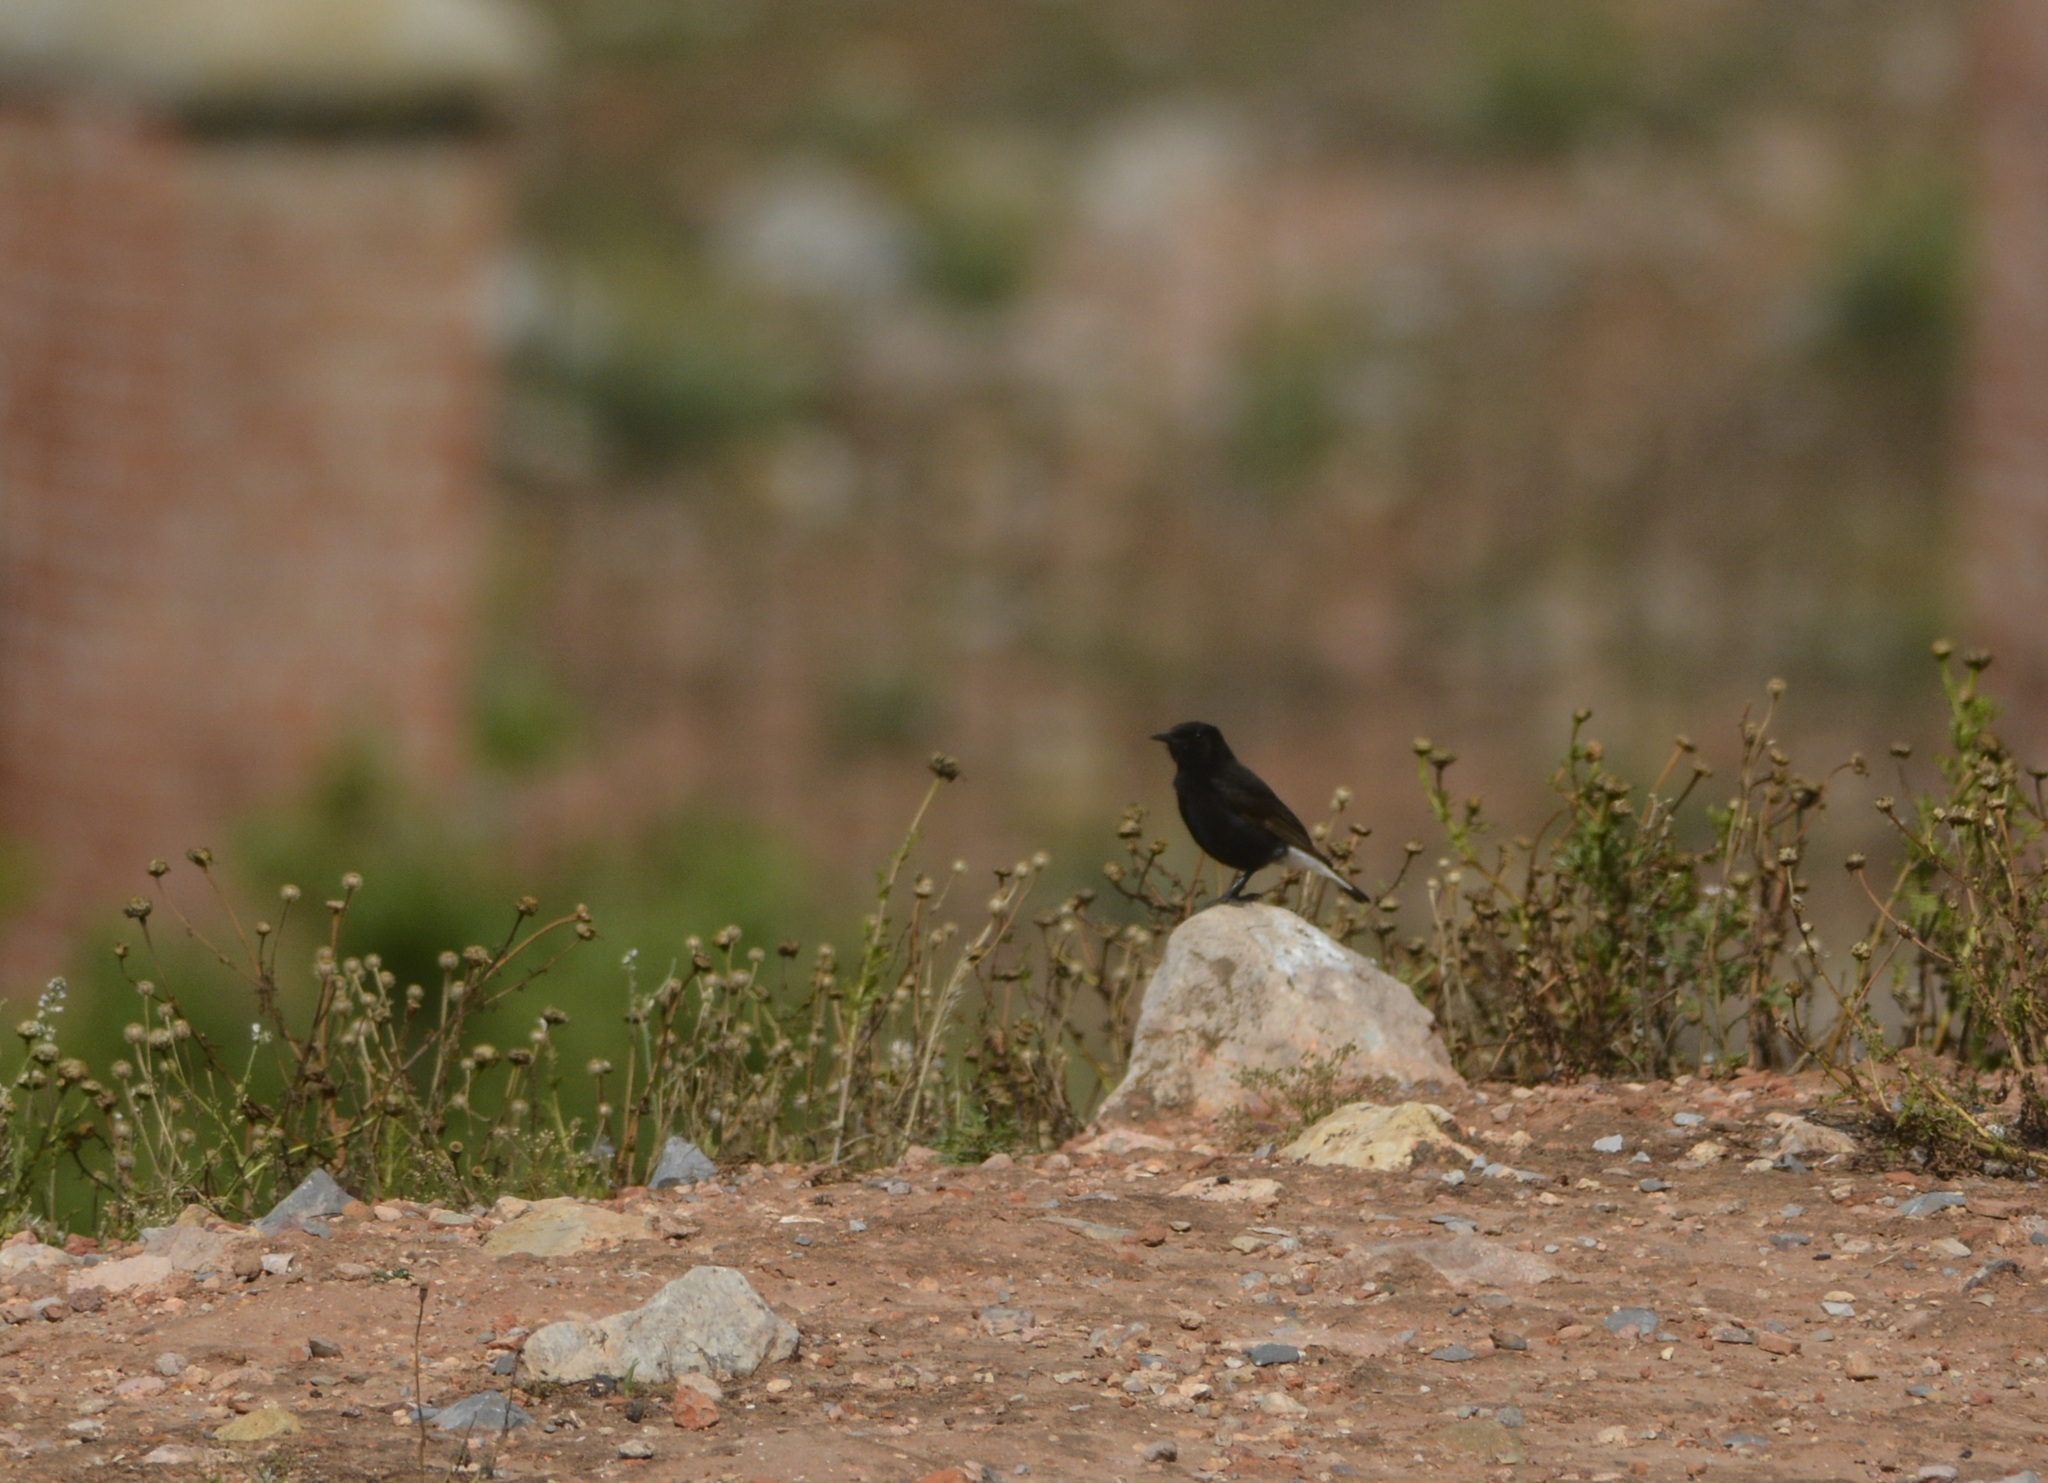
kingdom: Animalia
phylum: Chordata
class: Aves
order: Passeriformes
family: Muscicapidae
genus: Oenanthe
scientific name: Oenanthe leucura
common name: Black wheatear
